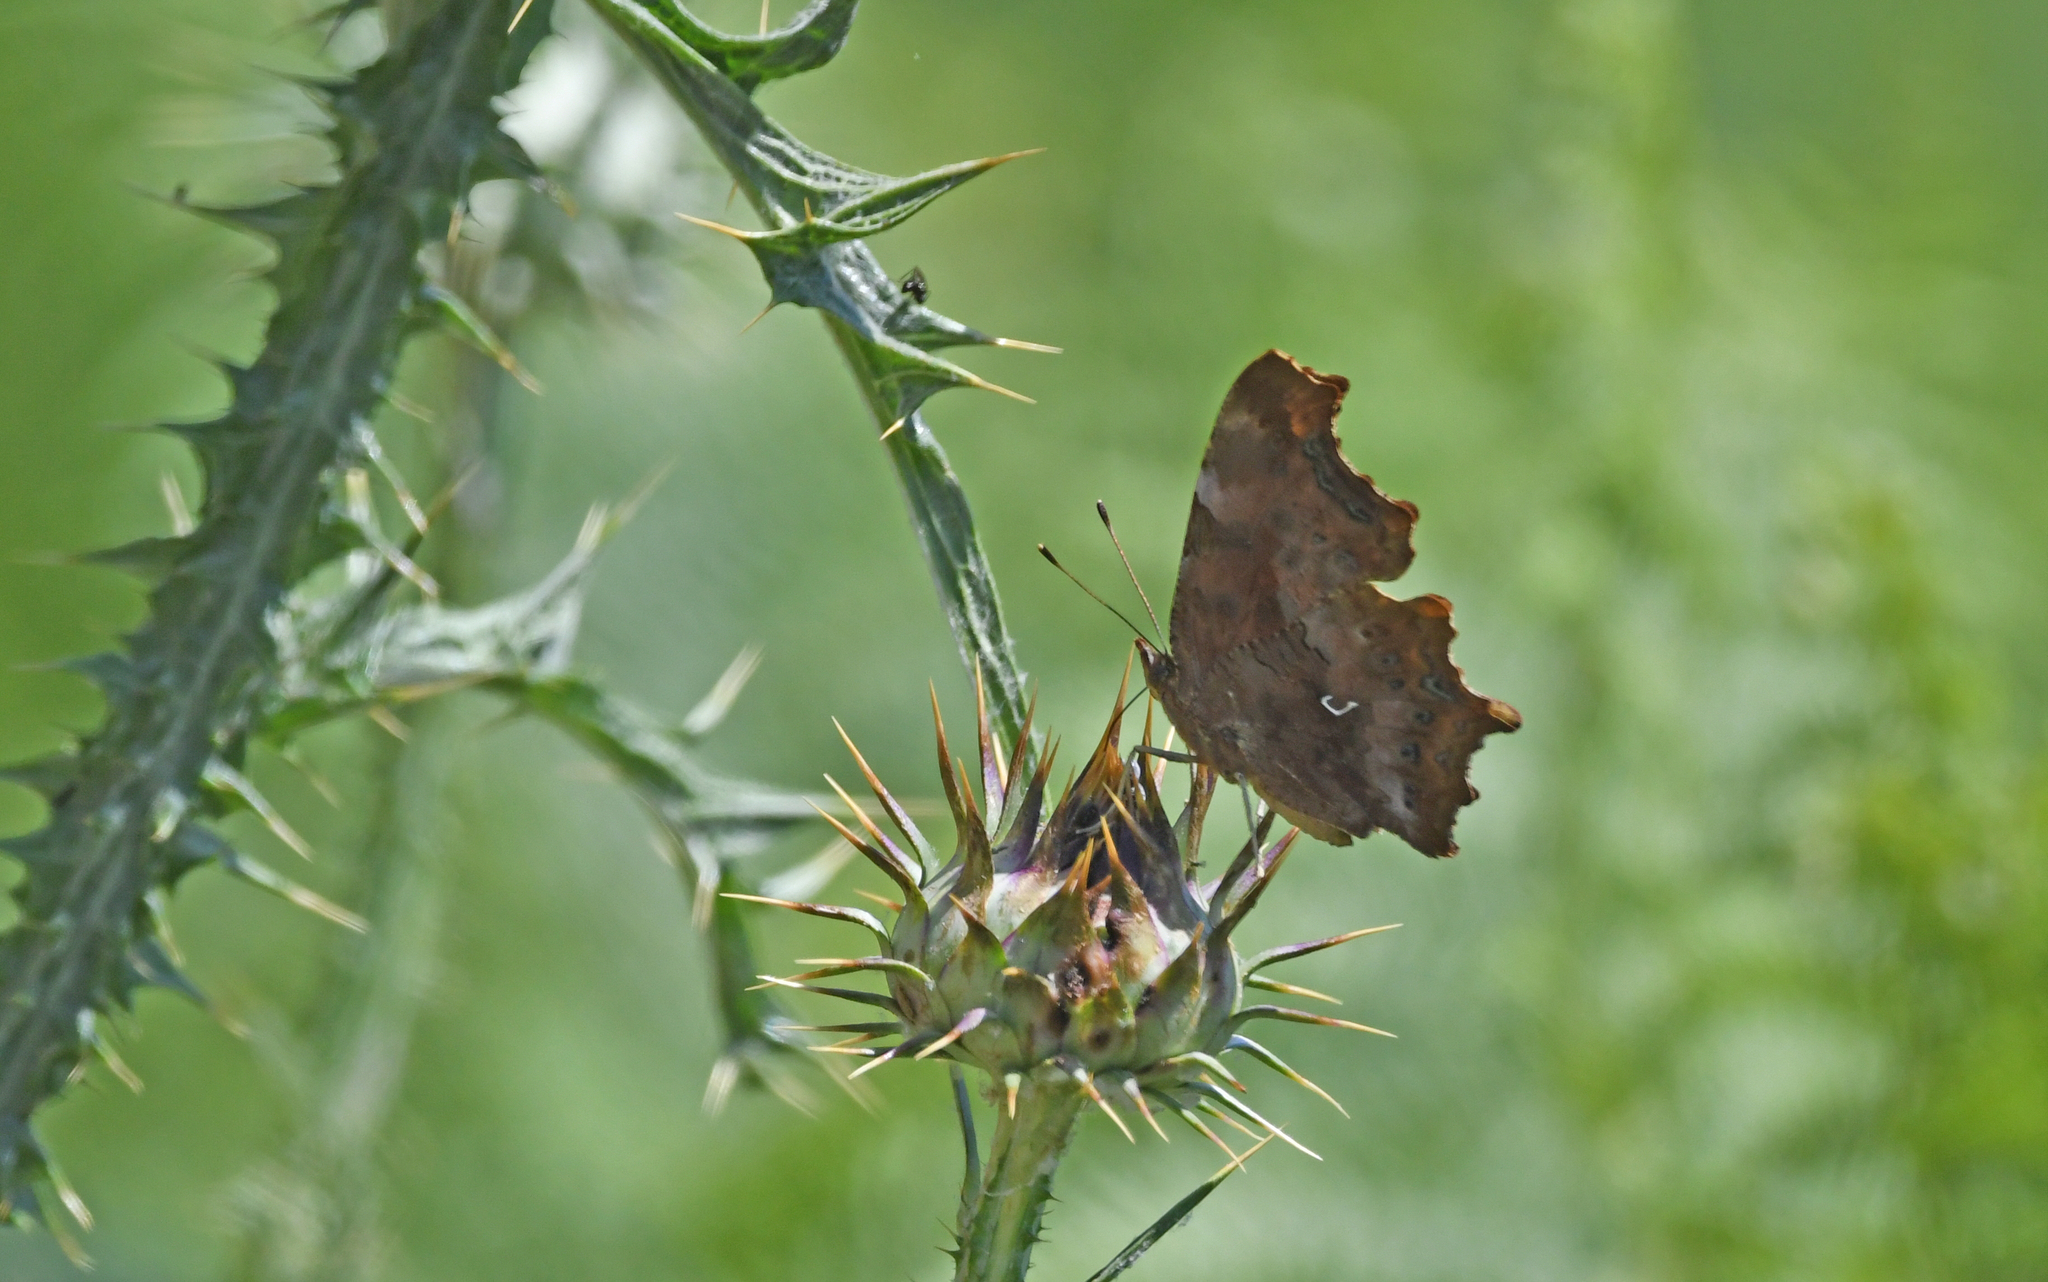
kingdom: Animalia
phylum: Arthropoda
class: Insecta
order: Lepidoptera
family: Nymphalidae
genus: Polygonia
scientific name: Polygonia c-album
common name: Comma
